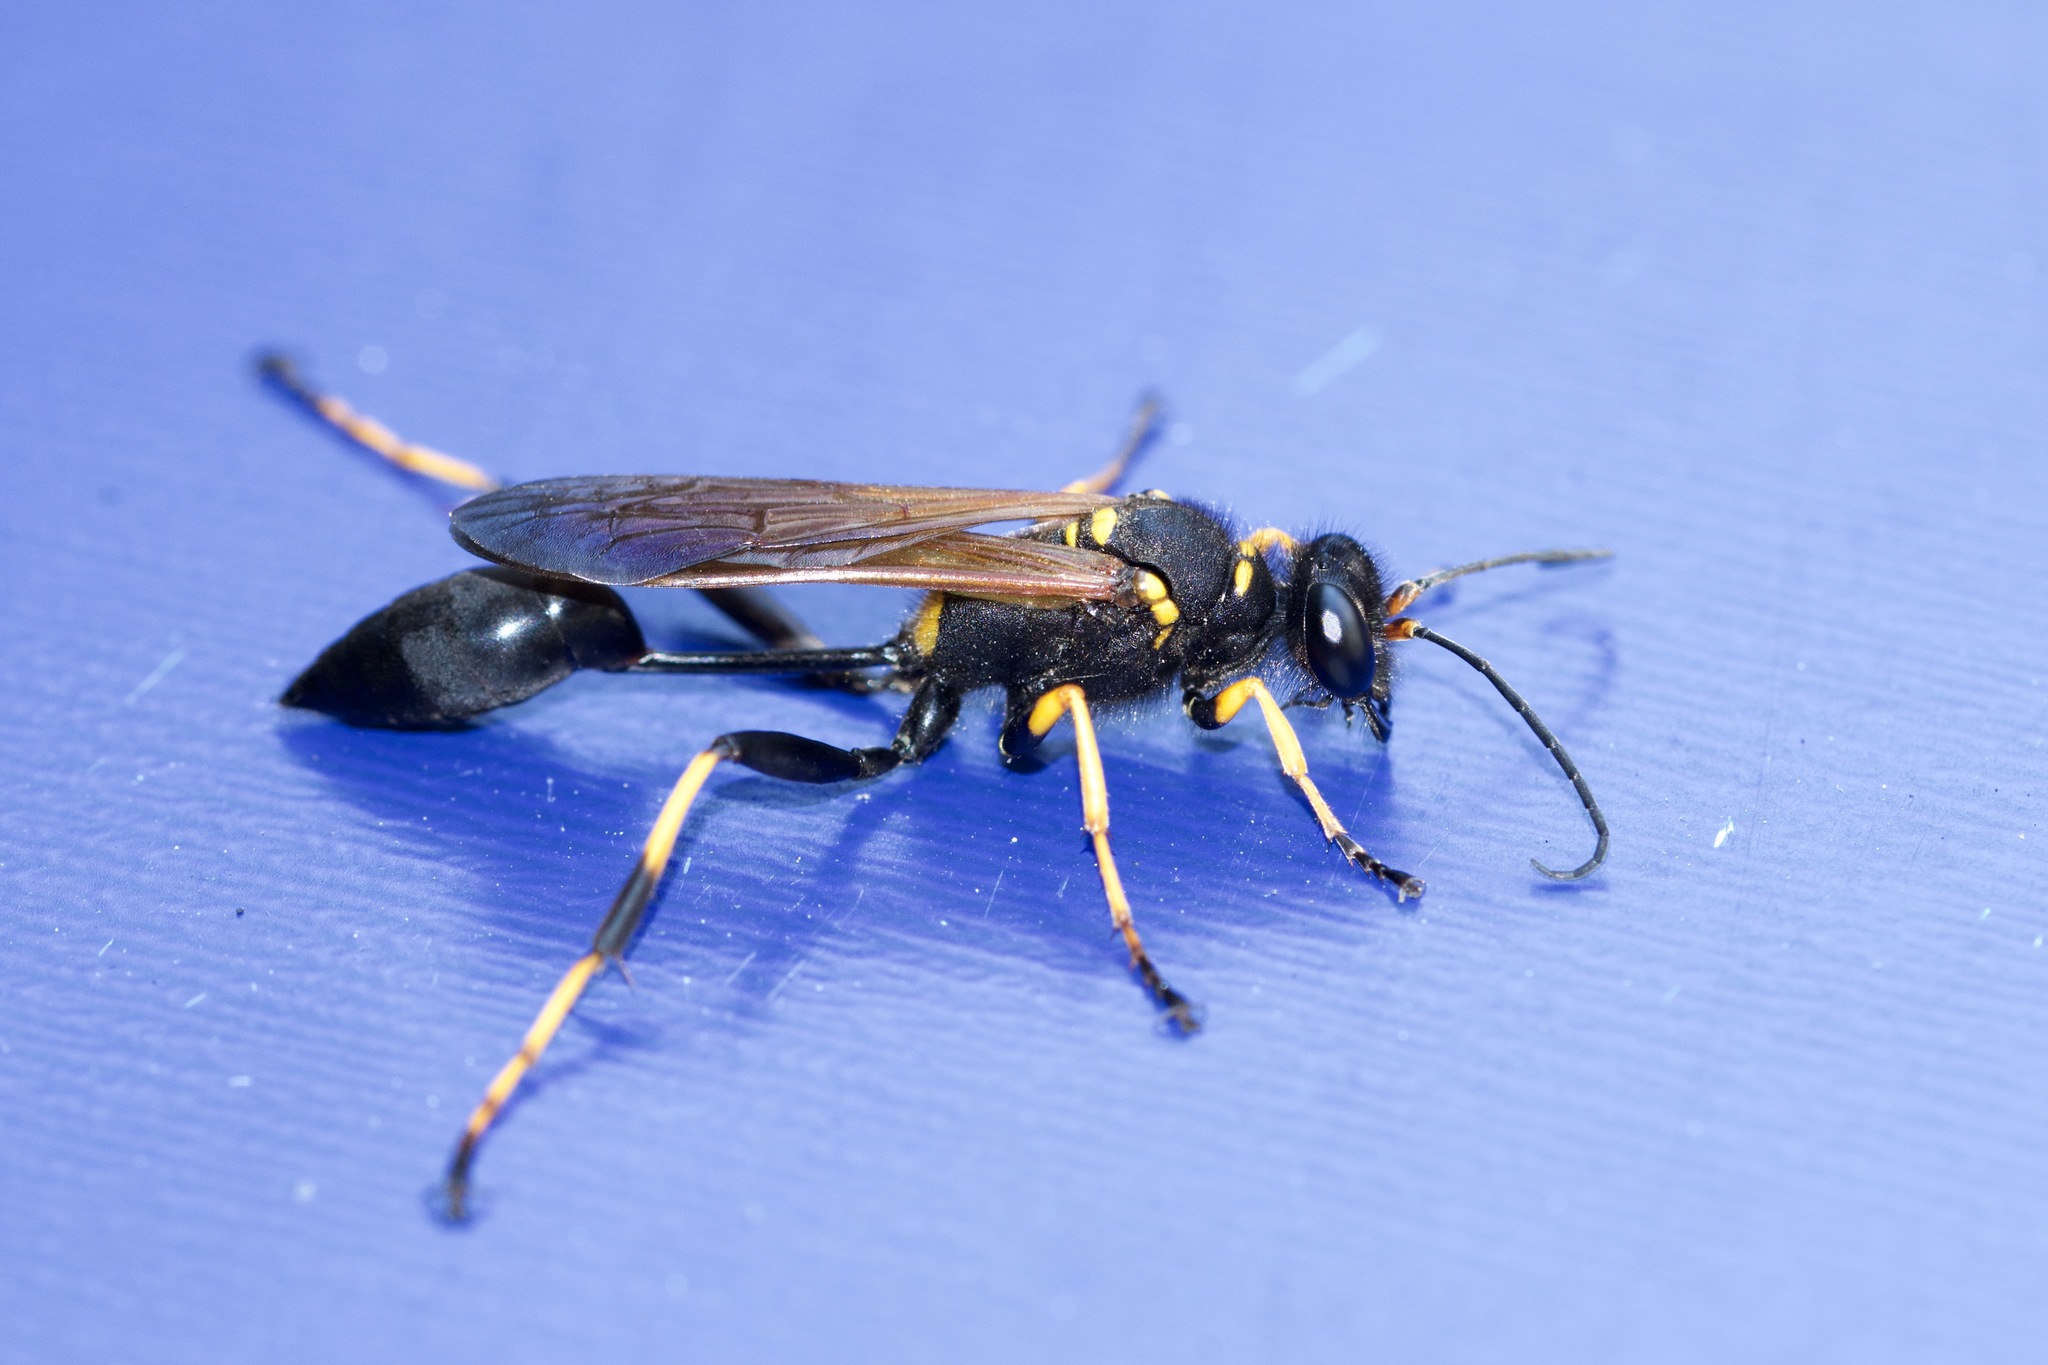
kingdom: Animalia
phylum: Arthropoda
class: Insecta
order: Hymenoptera
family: Sphecidae
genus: Sceliphron
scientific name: Sceliphron caementarium
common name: Mud dauber
